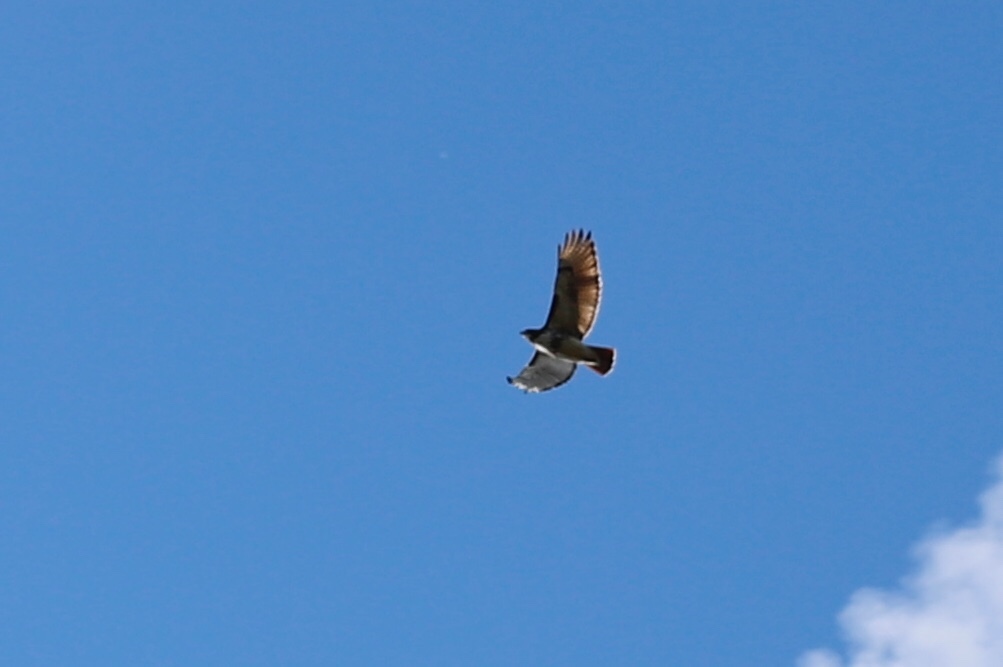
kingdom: Animalia
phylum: Chordata
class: Aves
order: Accipitriformes
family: Accipitridae
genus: Buteo
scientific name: Buteo jamaicensis
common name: Red-tailed hawk
